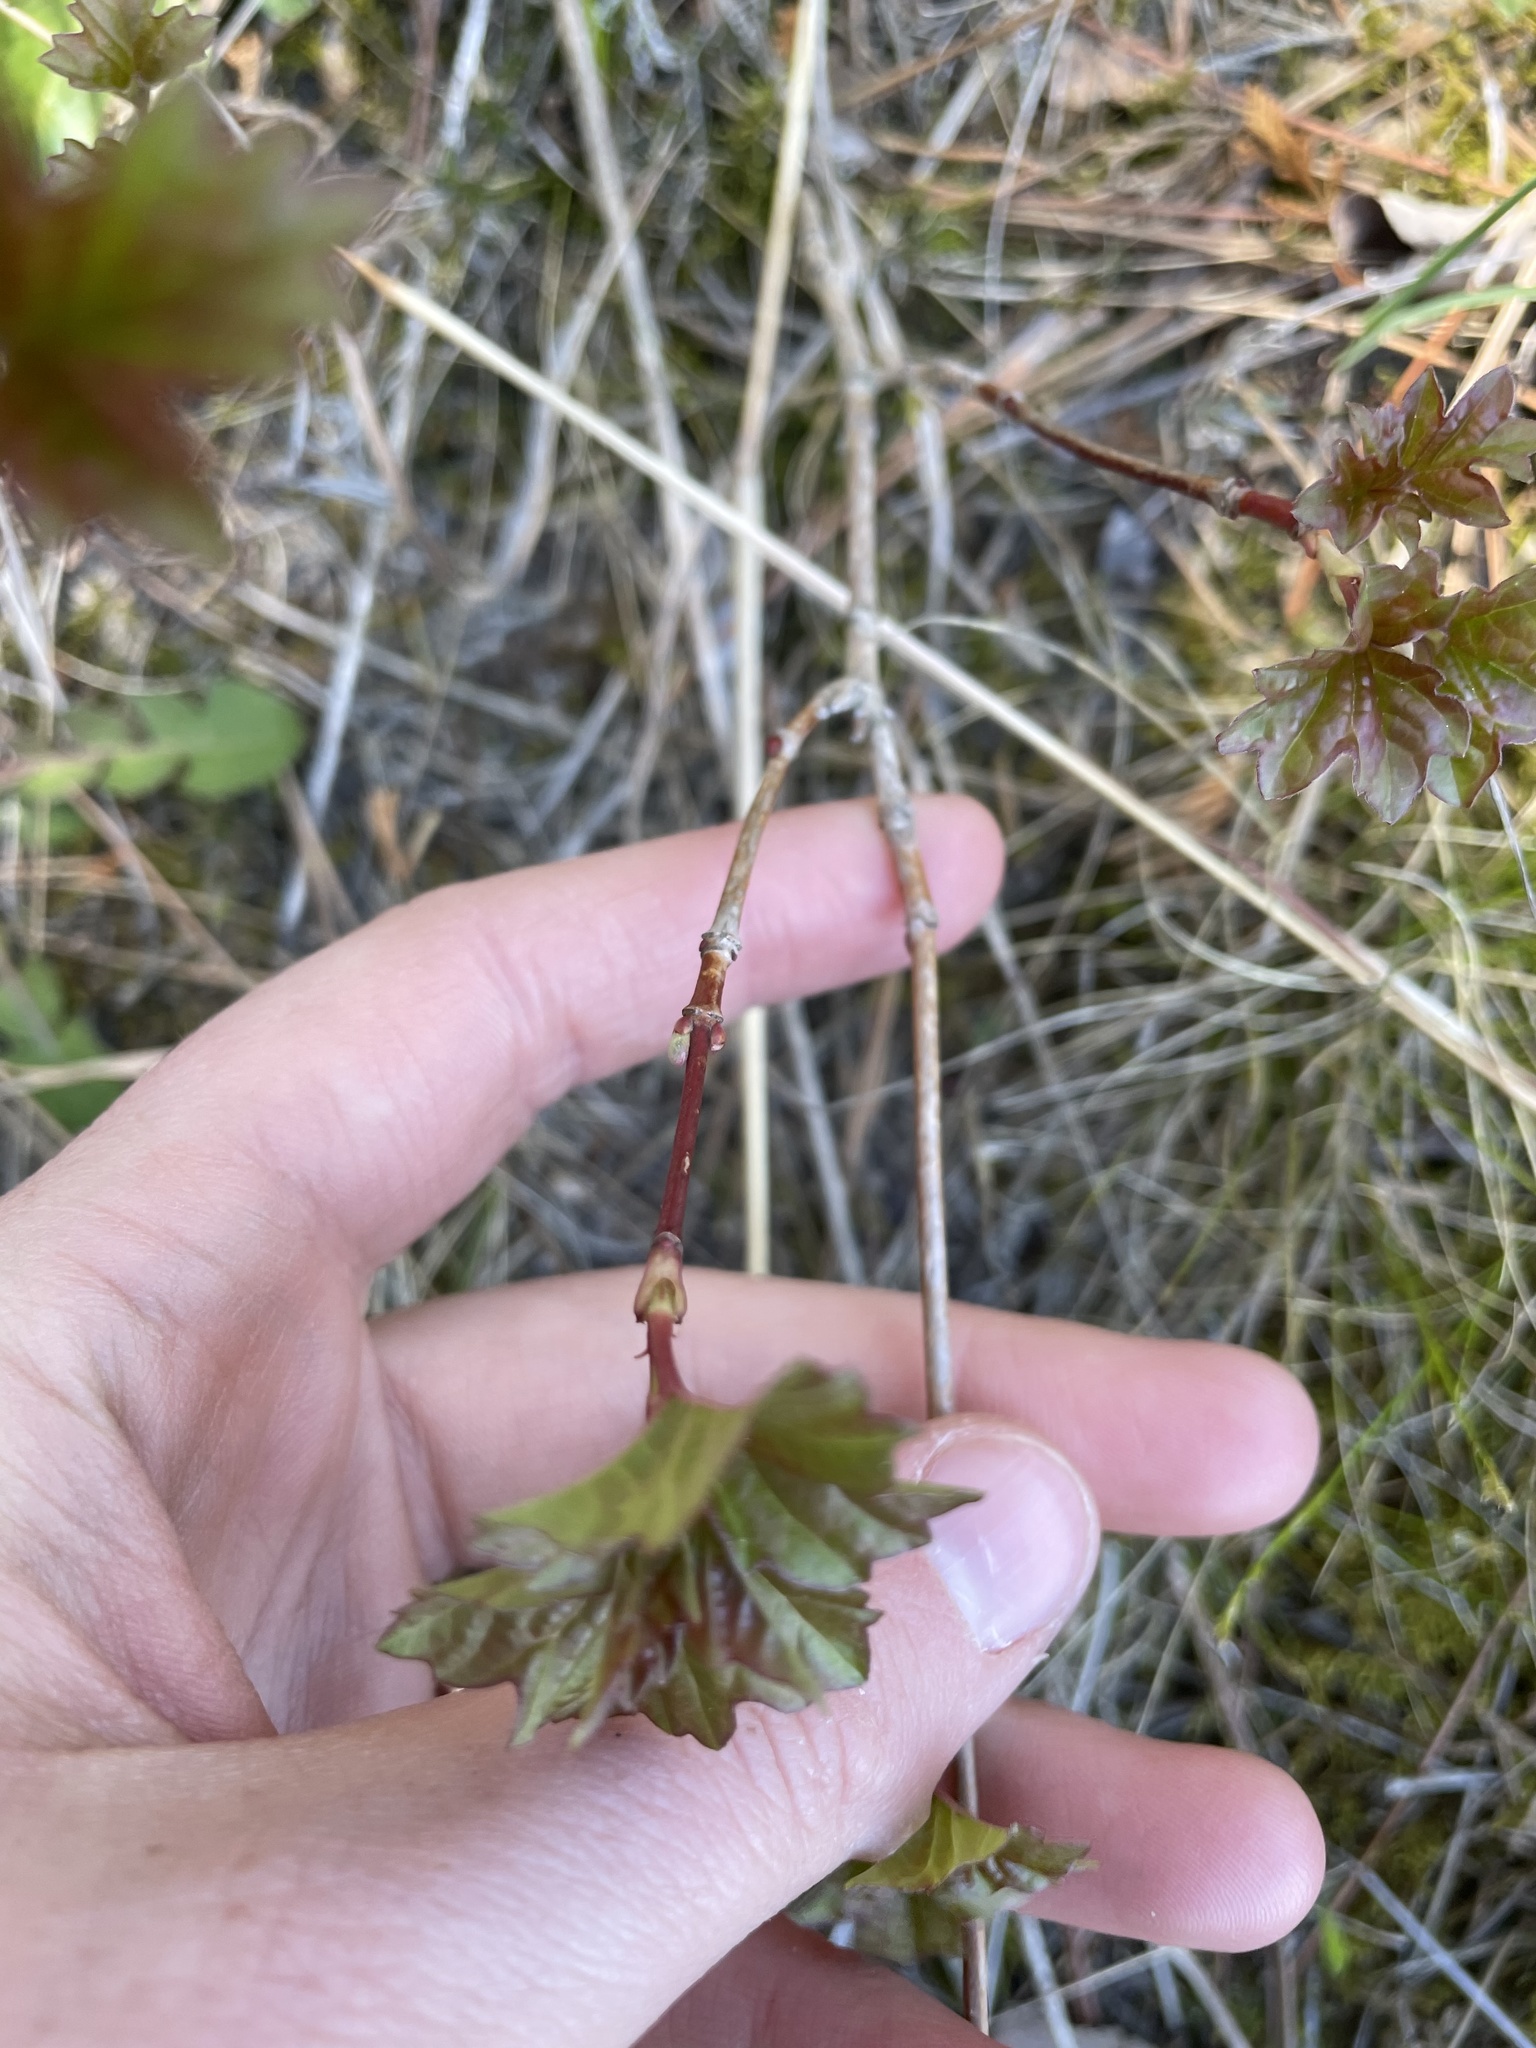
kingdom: Plantae
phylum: Tracheophyta
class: Magnoliopsida
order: Dipsacales
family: Viburnaceae
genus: Viburnum
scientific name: Viburnum opulus
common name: Guelder-rose
